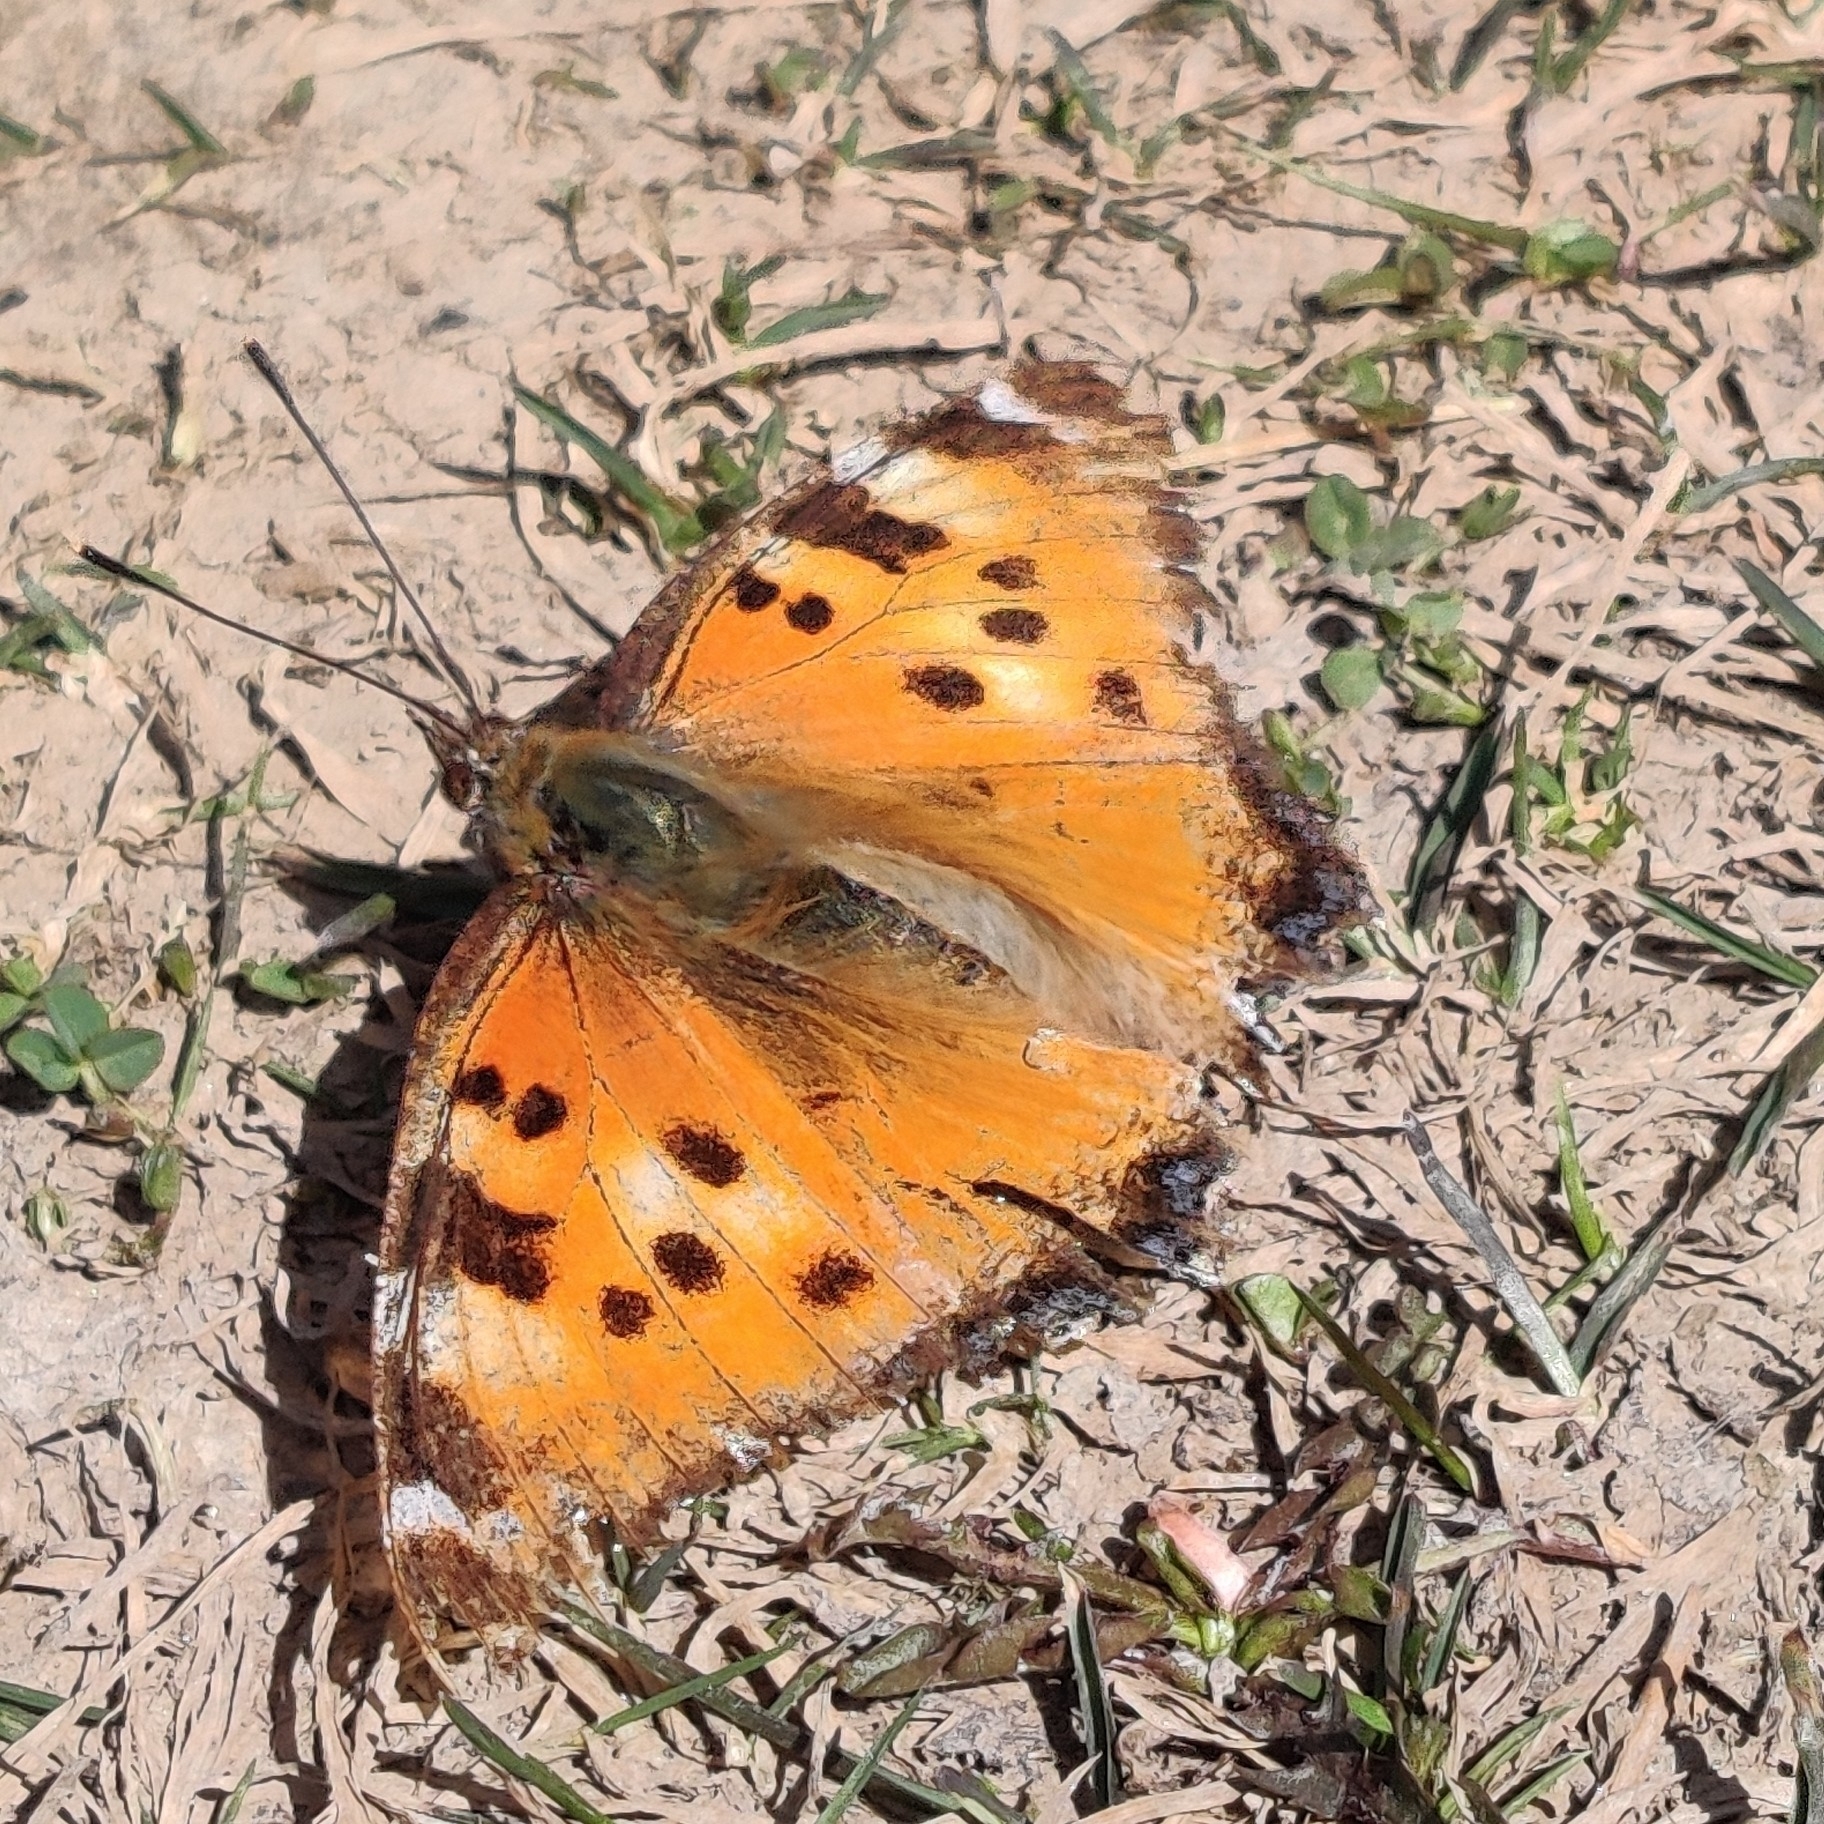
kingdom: Animalia
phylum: Arthropoda
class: Insecta
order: Lepidoptera
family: Nymphalidae
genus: Nymphalis
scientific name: Nymphalis xanthomelas
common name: Scarce tortoiseshell
